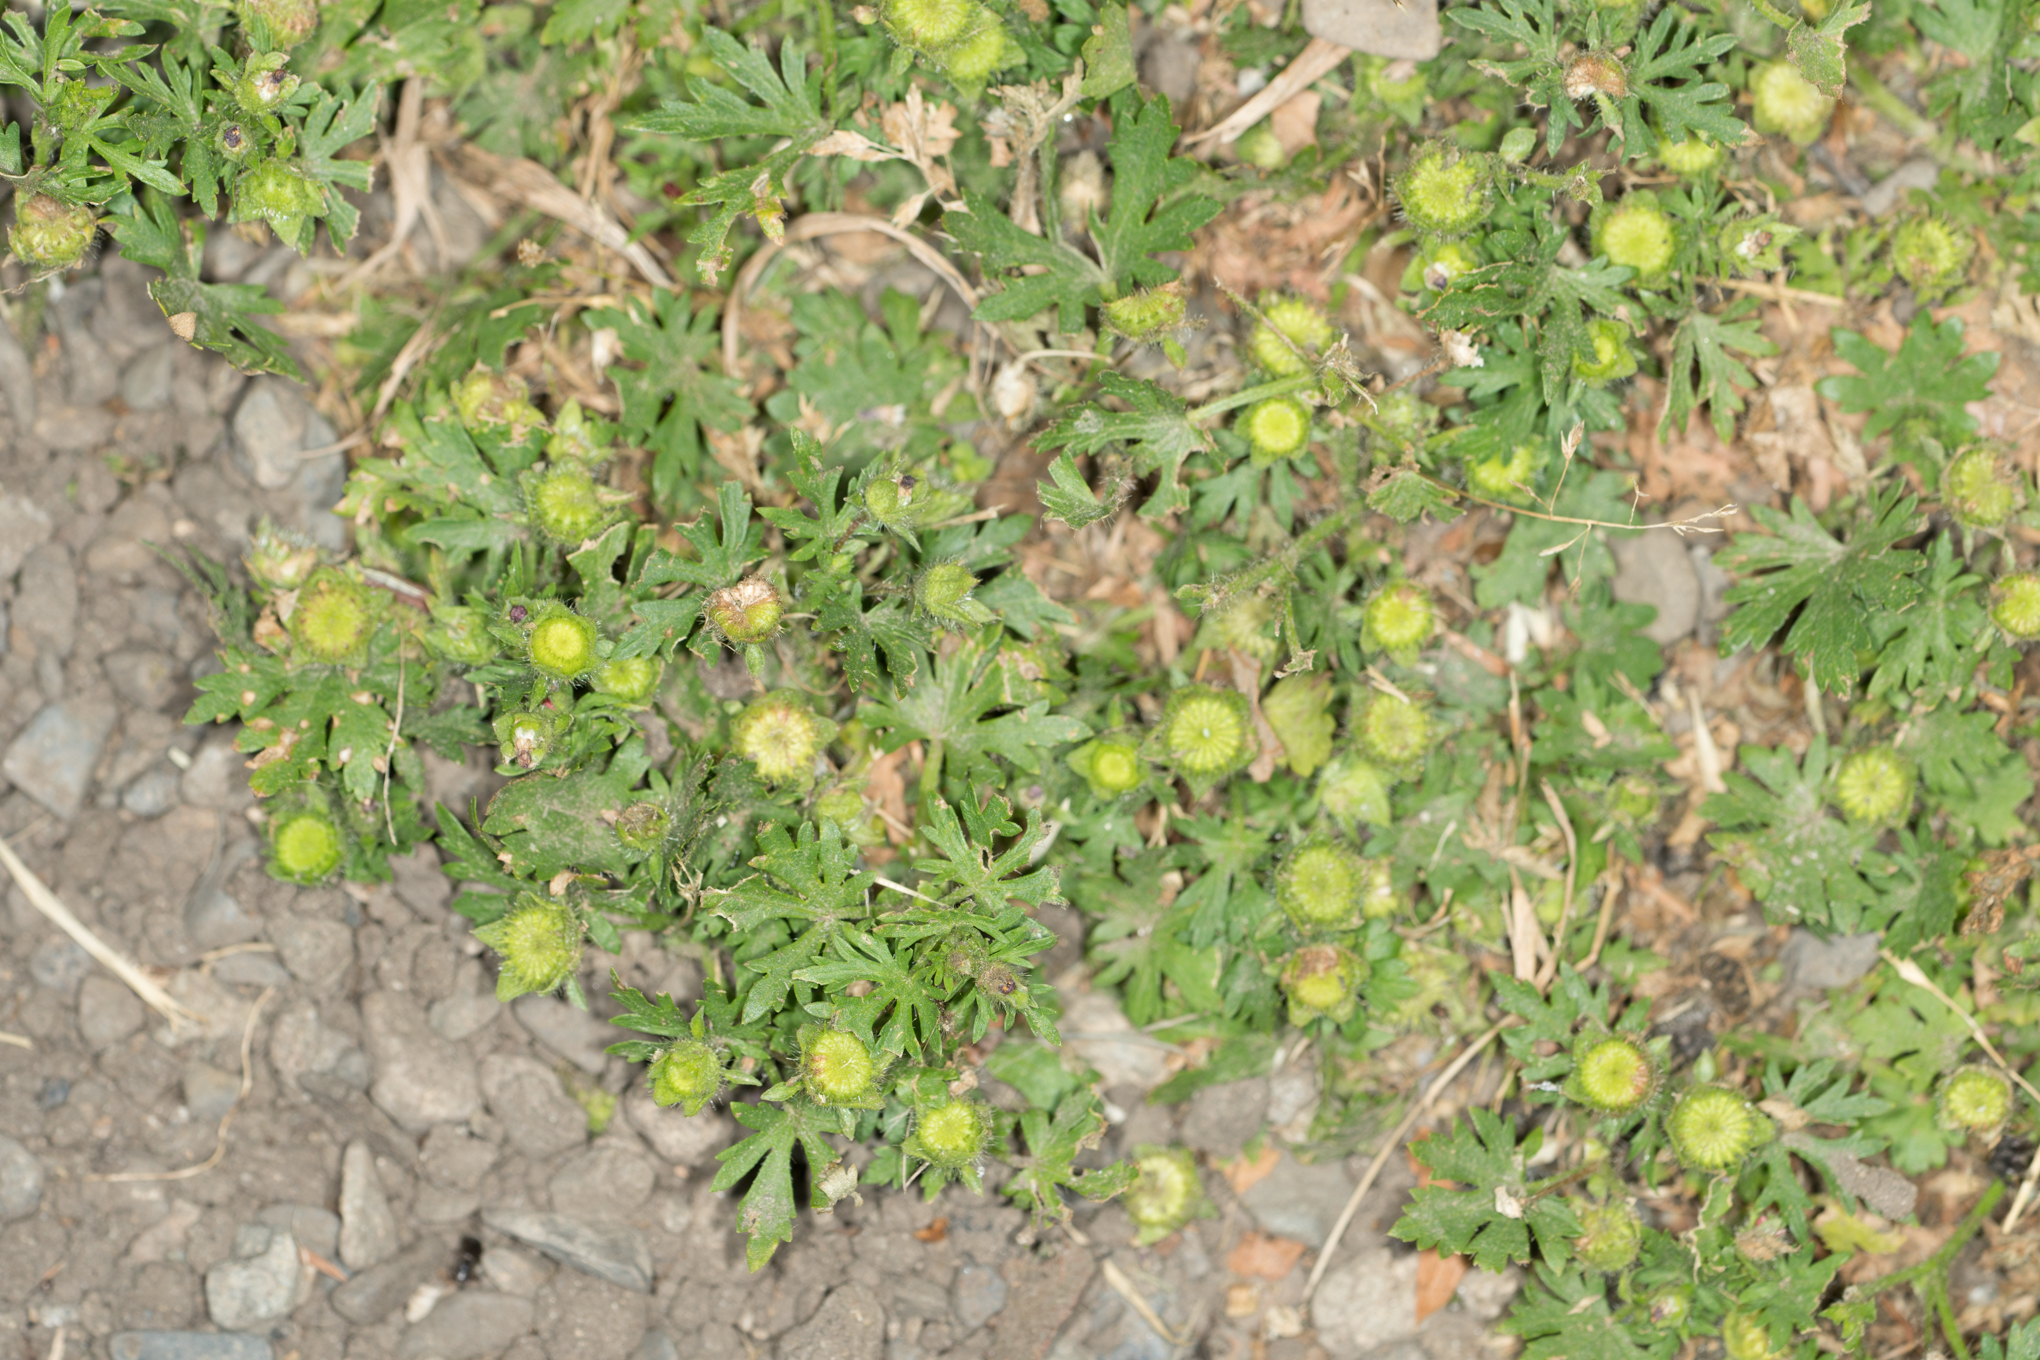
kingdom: Plantae
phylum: Tracheophyta
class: Magnoliopsida
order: Malvales
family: Malvaceae
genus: Modiola
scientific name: Modiola caroliniana
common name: Carolina bristlemallow
